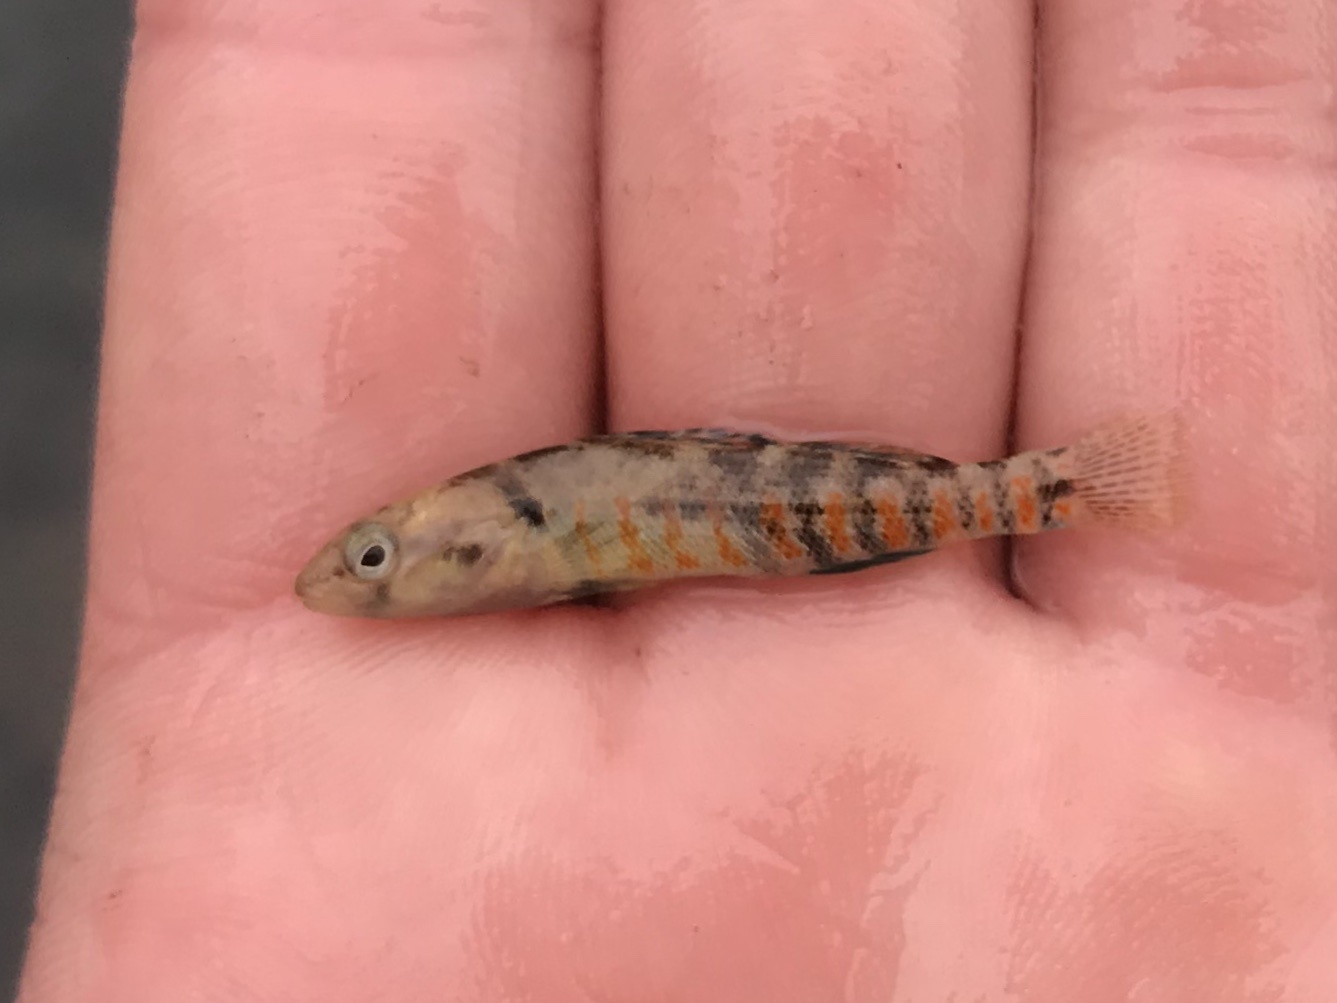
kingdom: Animalia
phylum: Chordata
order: Perciformes
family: Percidae
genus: Etheostoma
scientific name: Etheostoma spectabile
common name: Orangethroat darter
